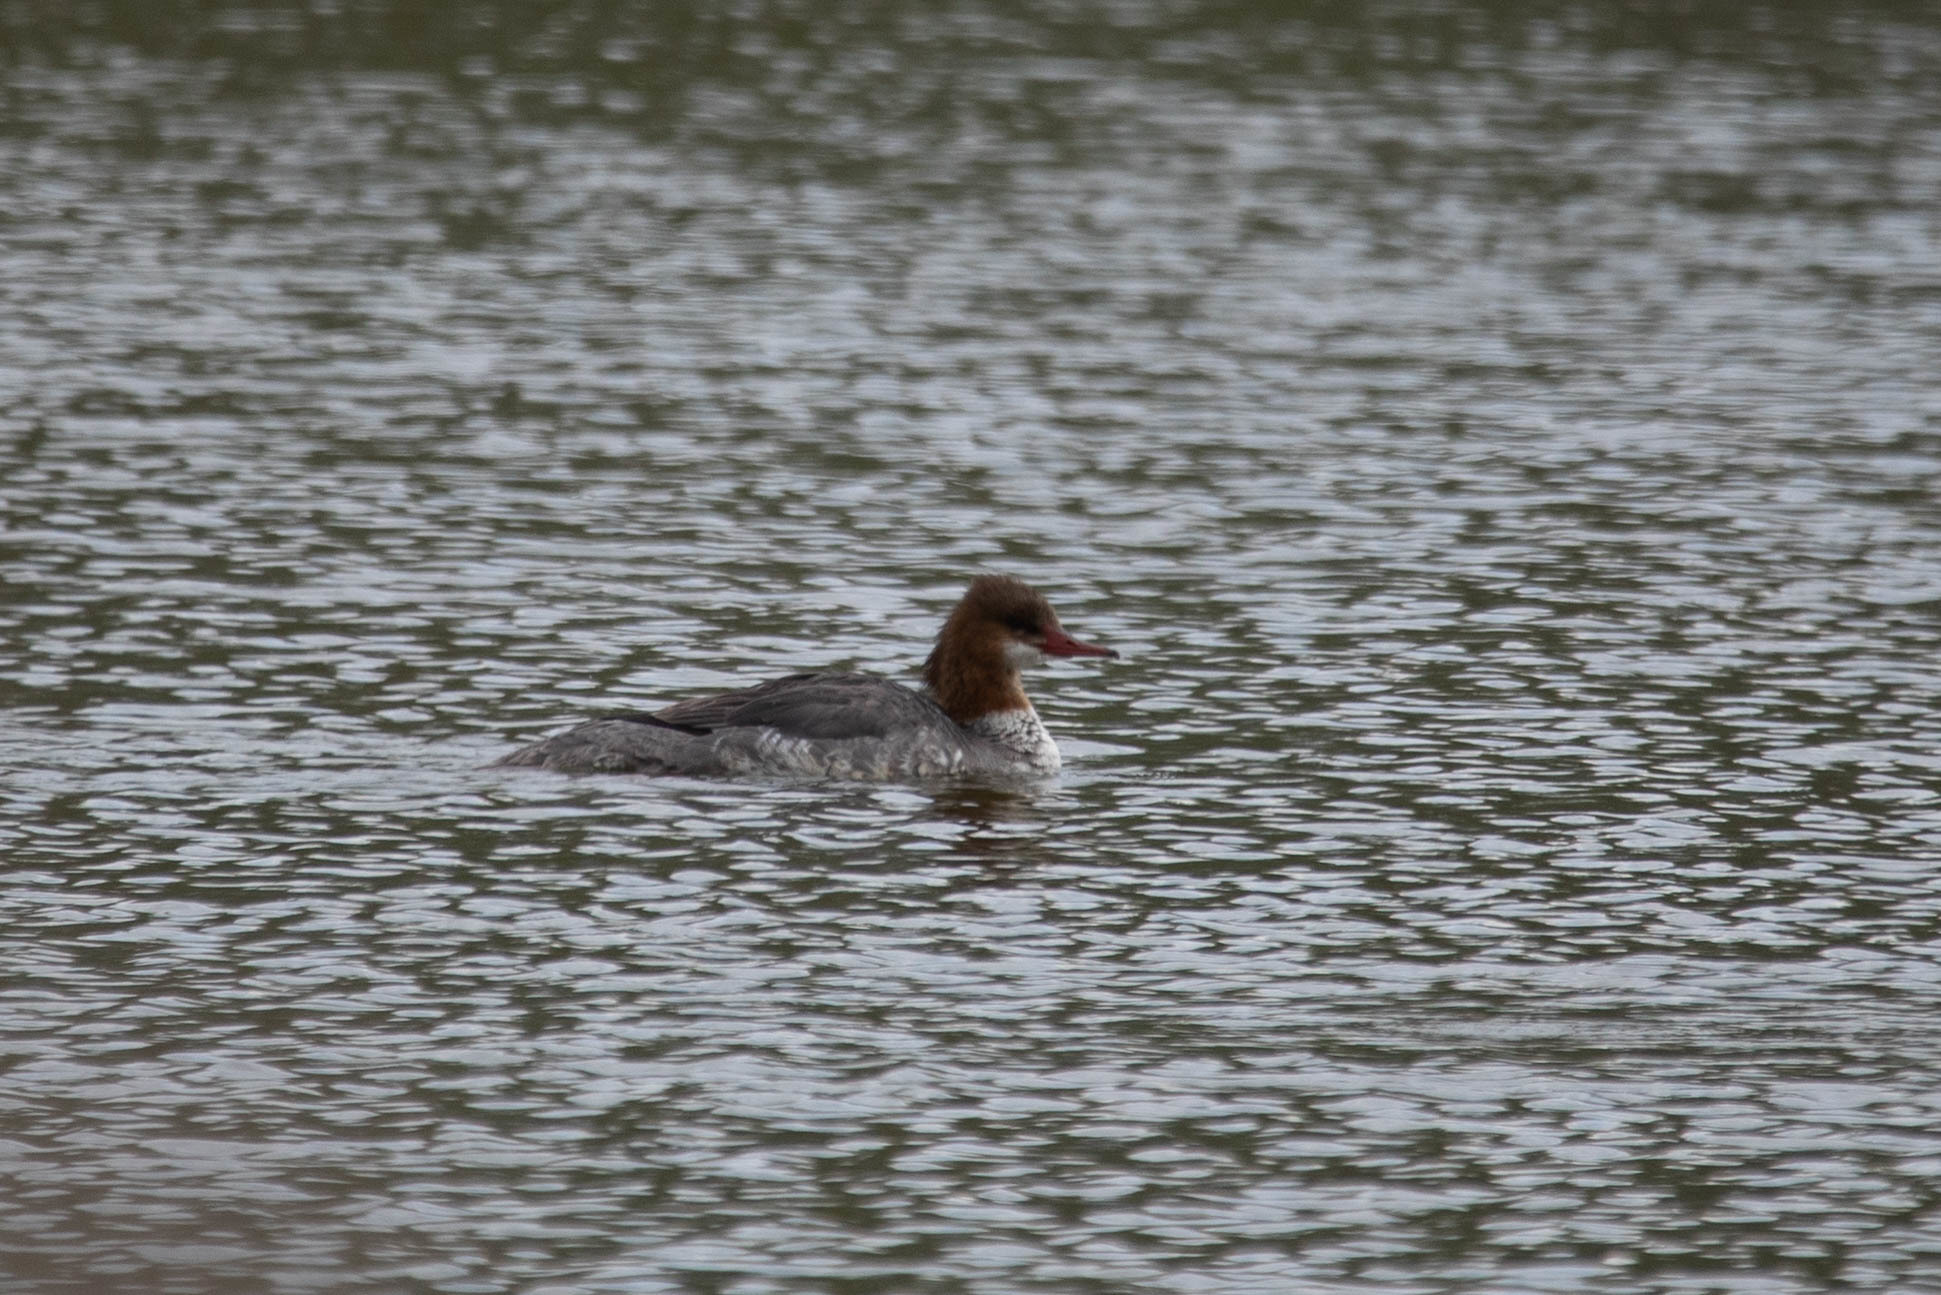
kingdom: Animalia
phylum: Chordata
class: Aves
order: Anseriformes
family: Anatidae
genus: Mergus
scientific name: Mergus merganser
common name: Common merganser
